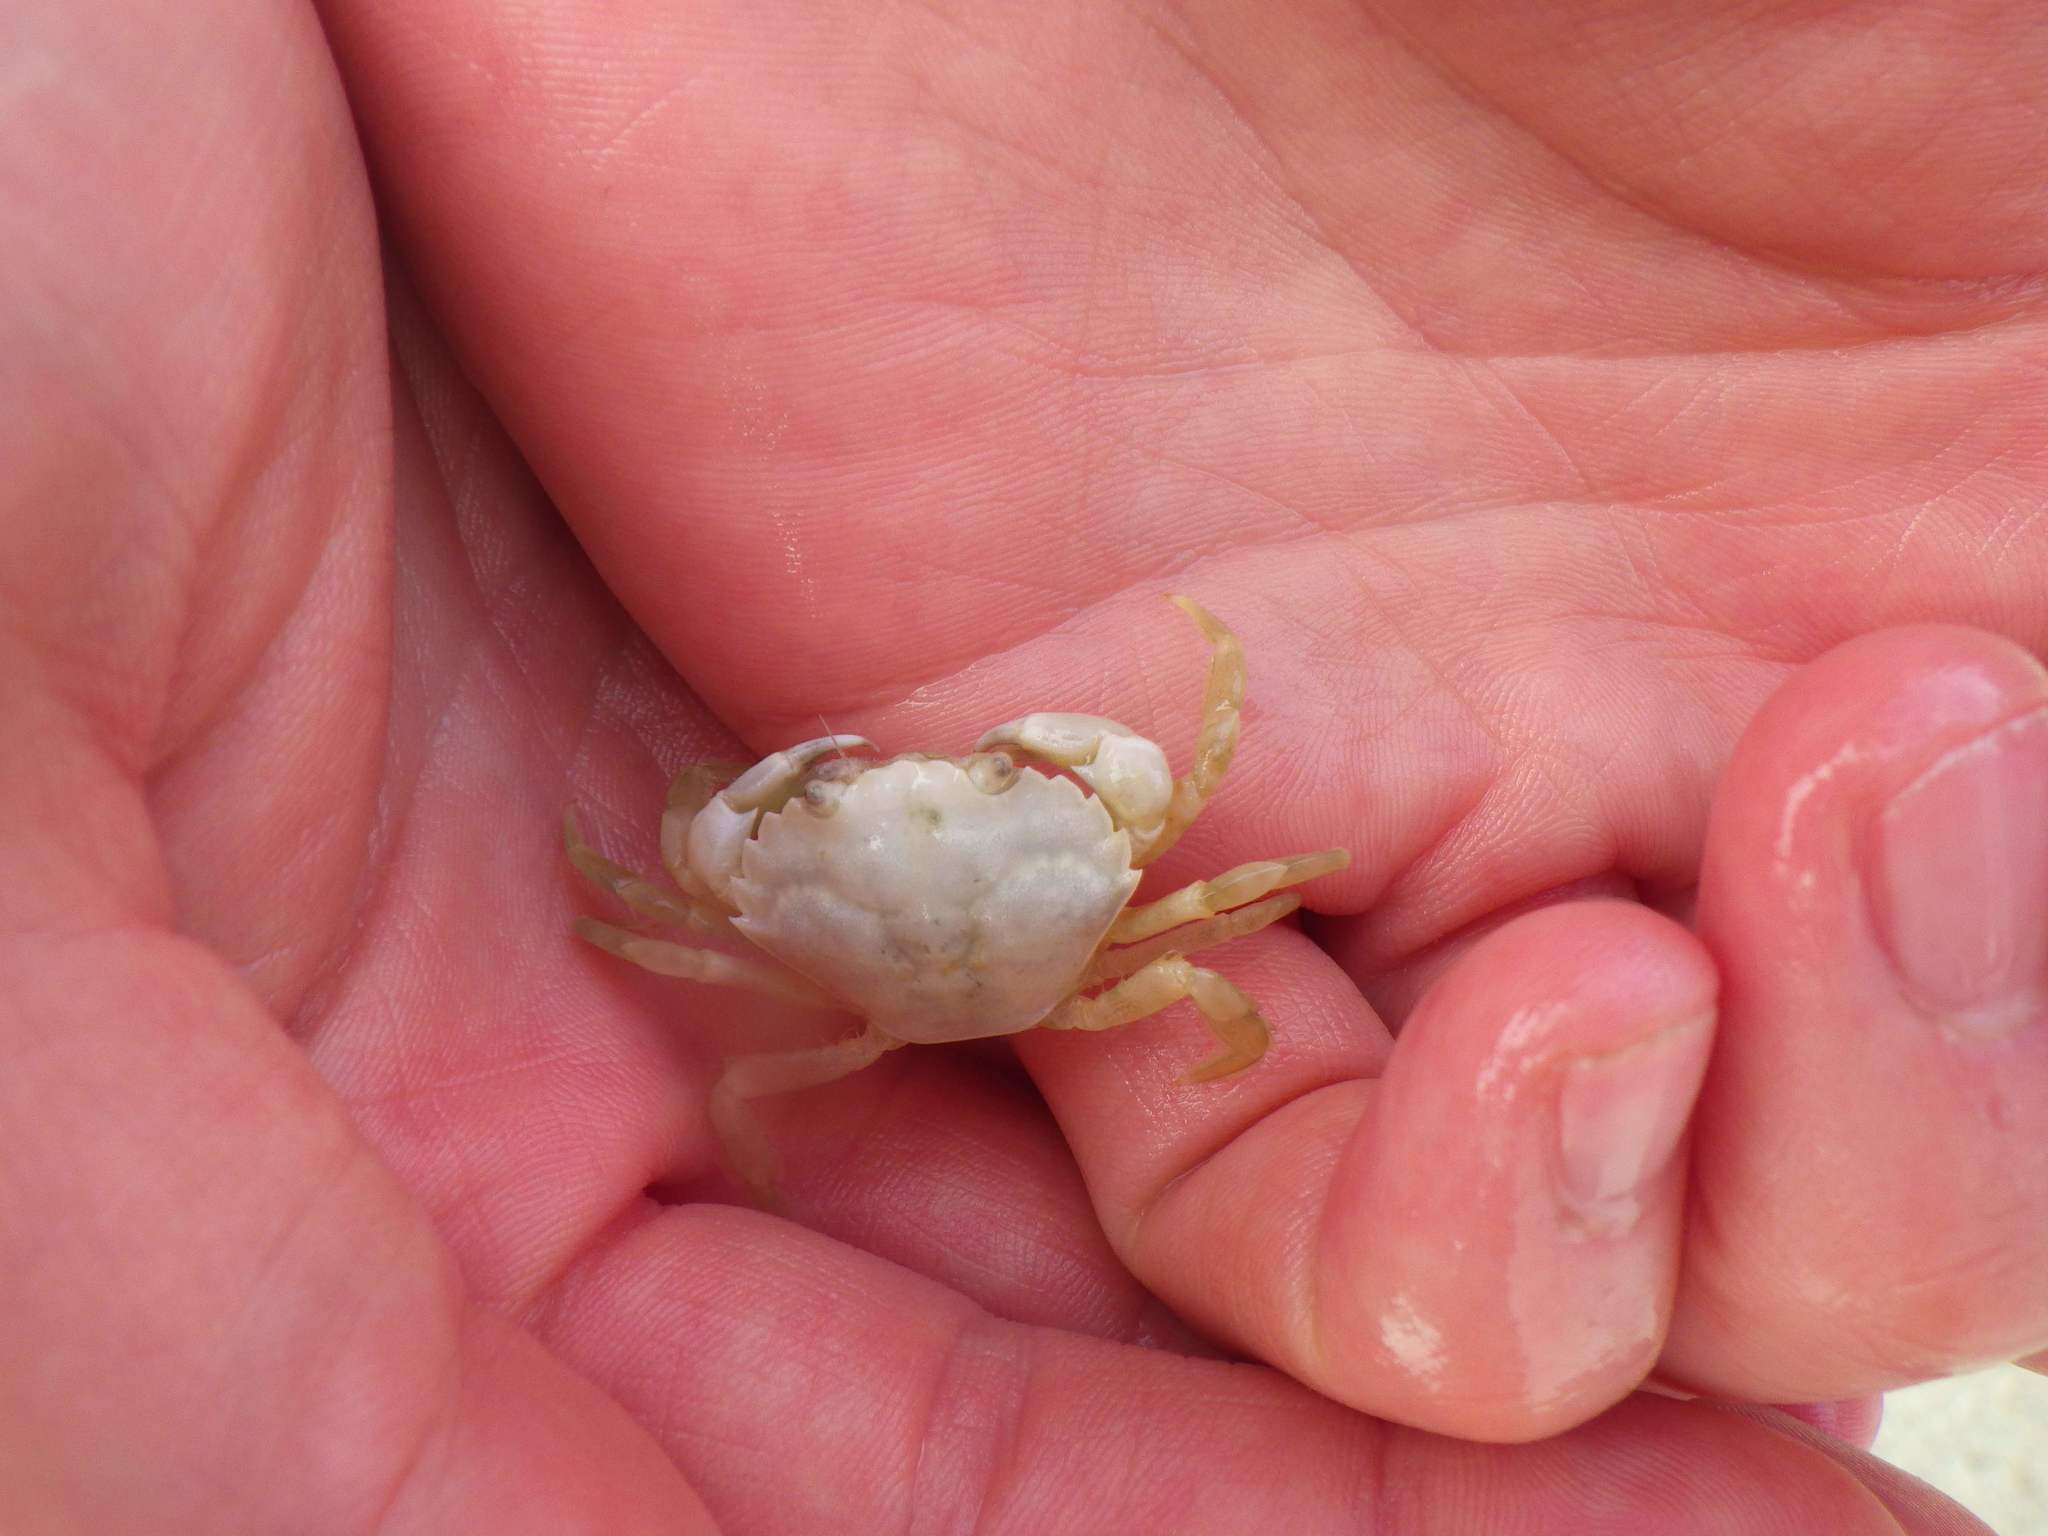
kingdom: Animalia
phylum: Arthropoda
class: Malacostraca
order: Decapoda
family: Carcinidae
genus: Carcinus
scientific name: Carcinus maenas
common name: European green crab
